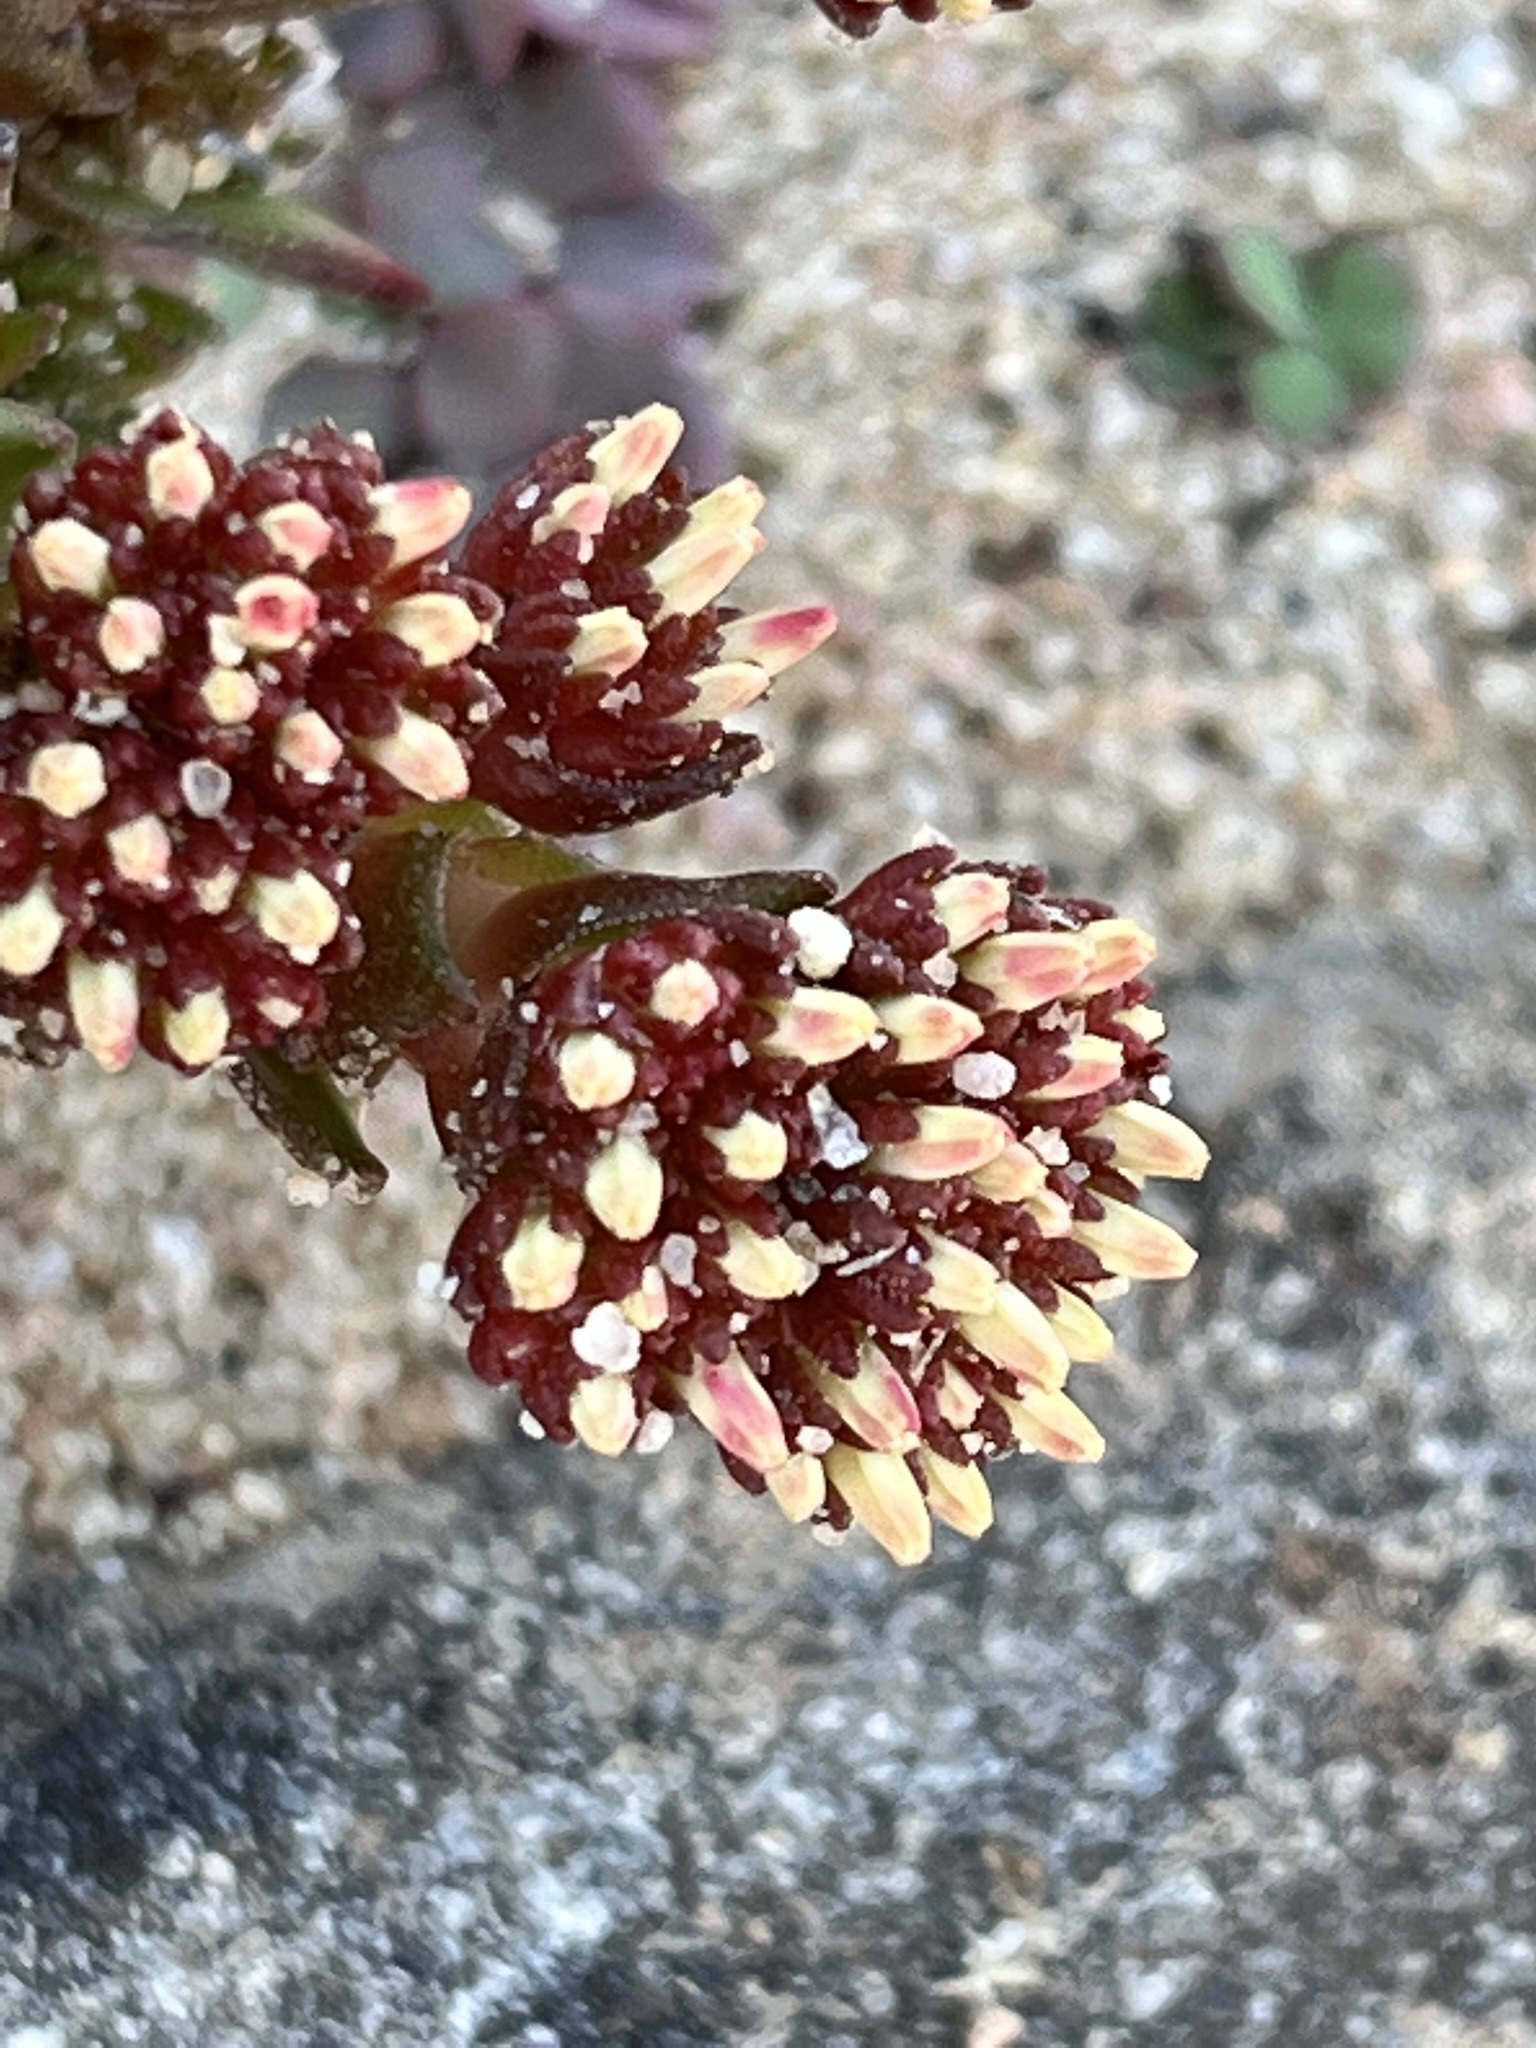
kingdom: Plantae
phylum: Tracheophyta
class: Magnoliopsida
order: Saxifragales
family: Crassulaceae
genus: Crassula
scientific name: Crassula alpestris
